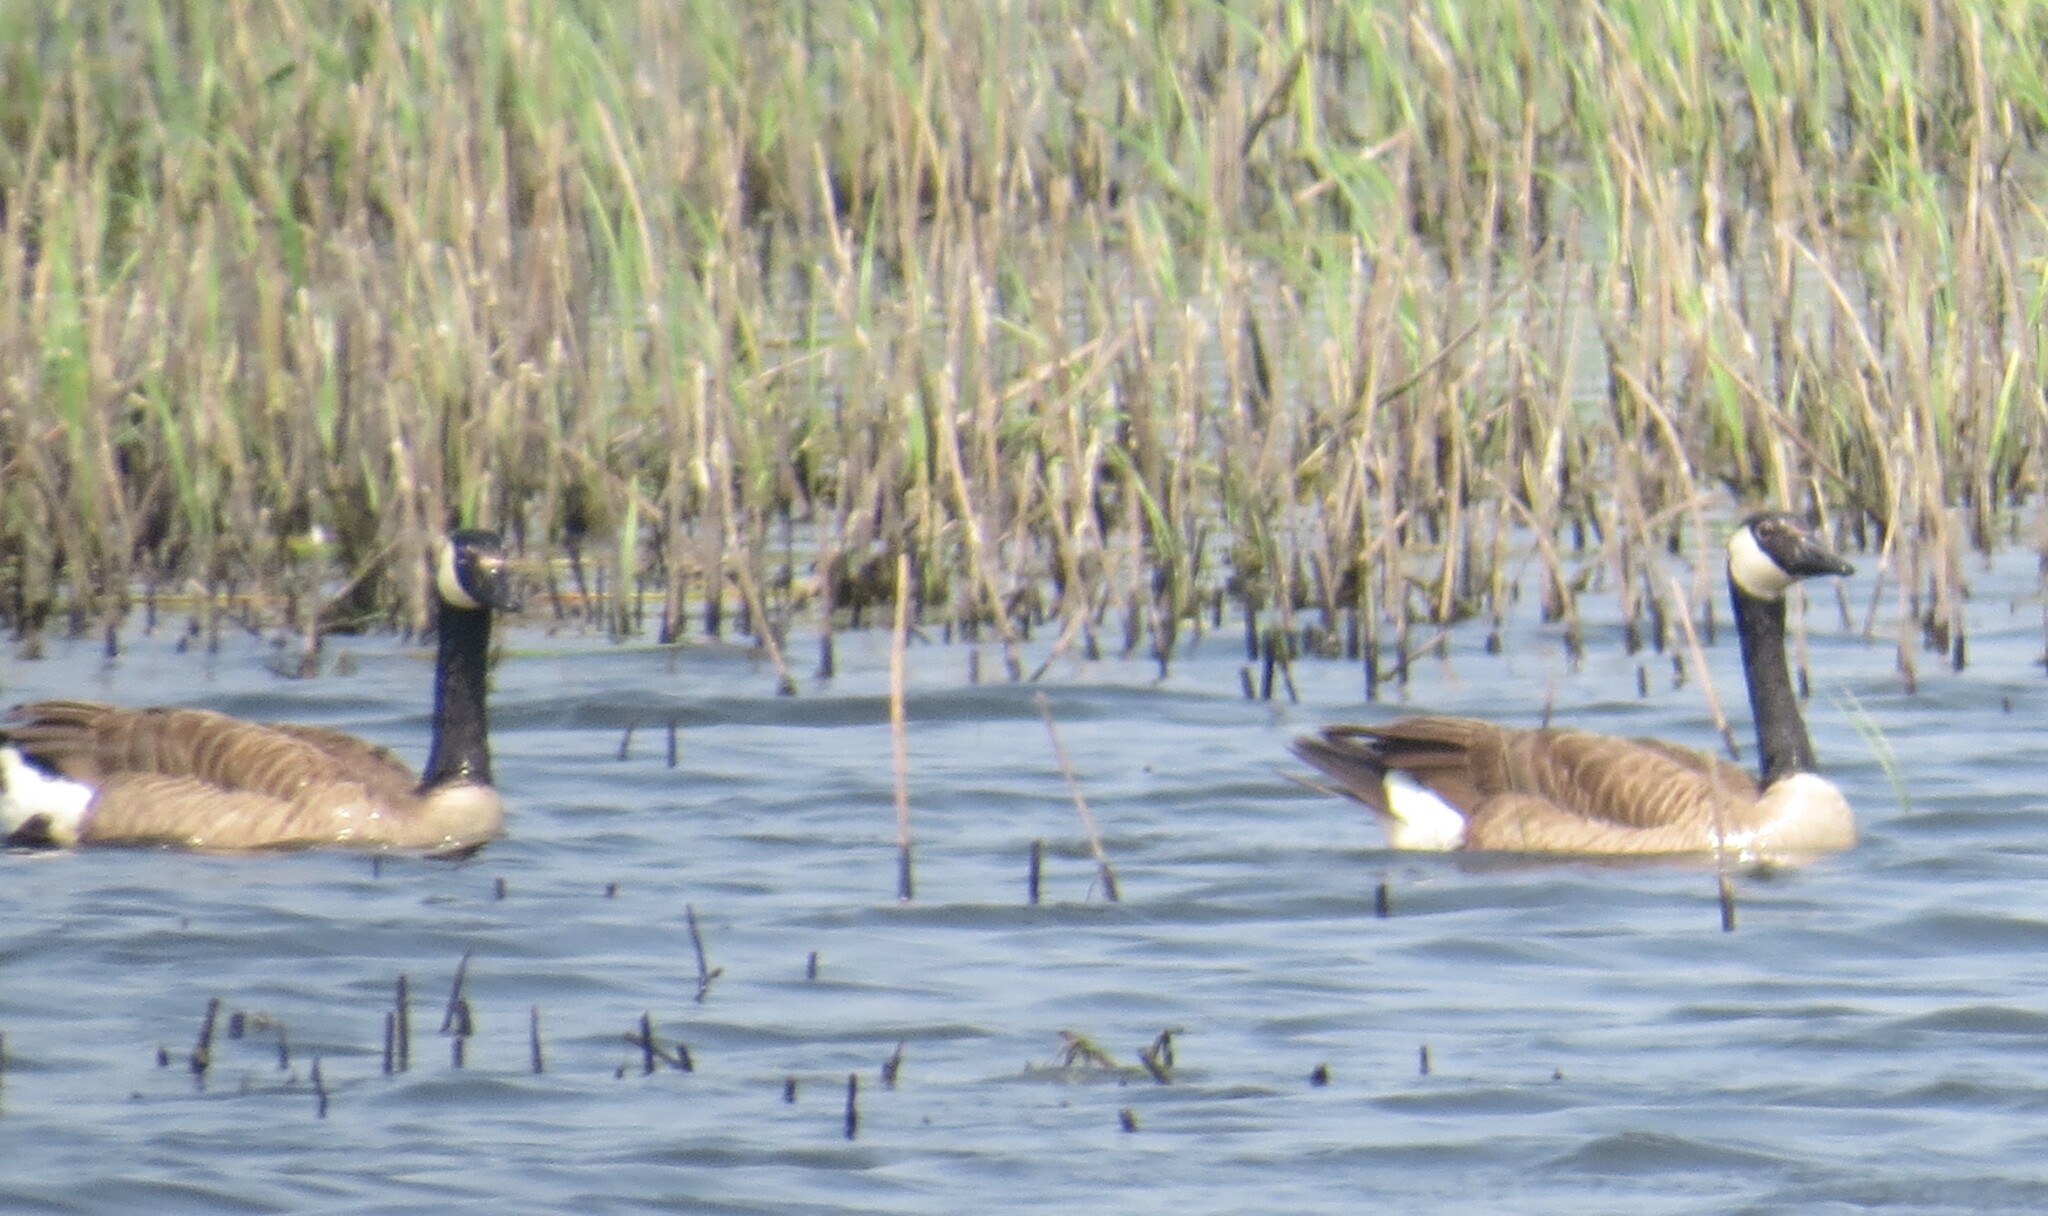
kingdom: Animalia
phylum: Chordata
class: Aves
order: Anseriformes
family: Anatidae
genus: Branta
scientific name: Branta canadensis
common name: Canada goose
